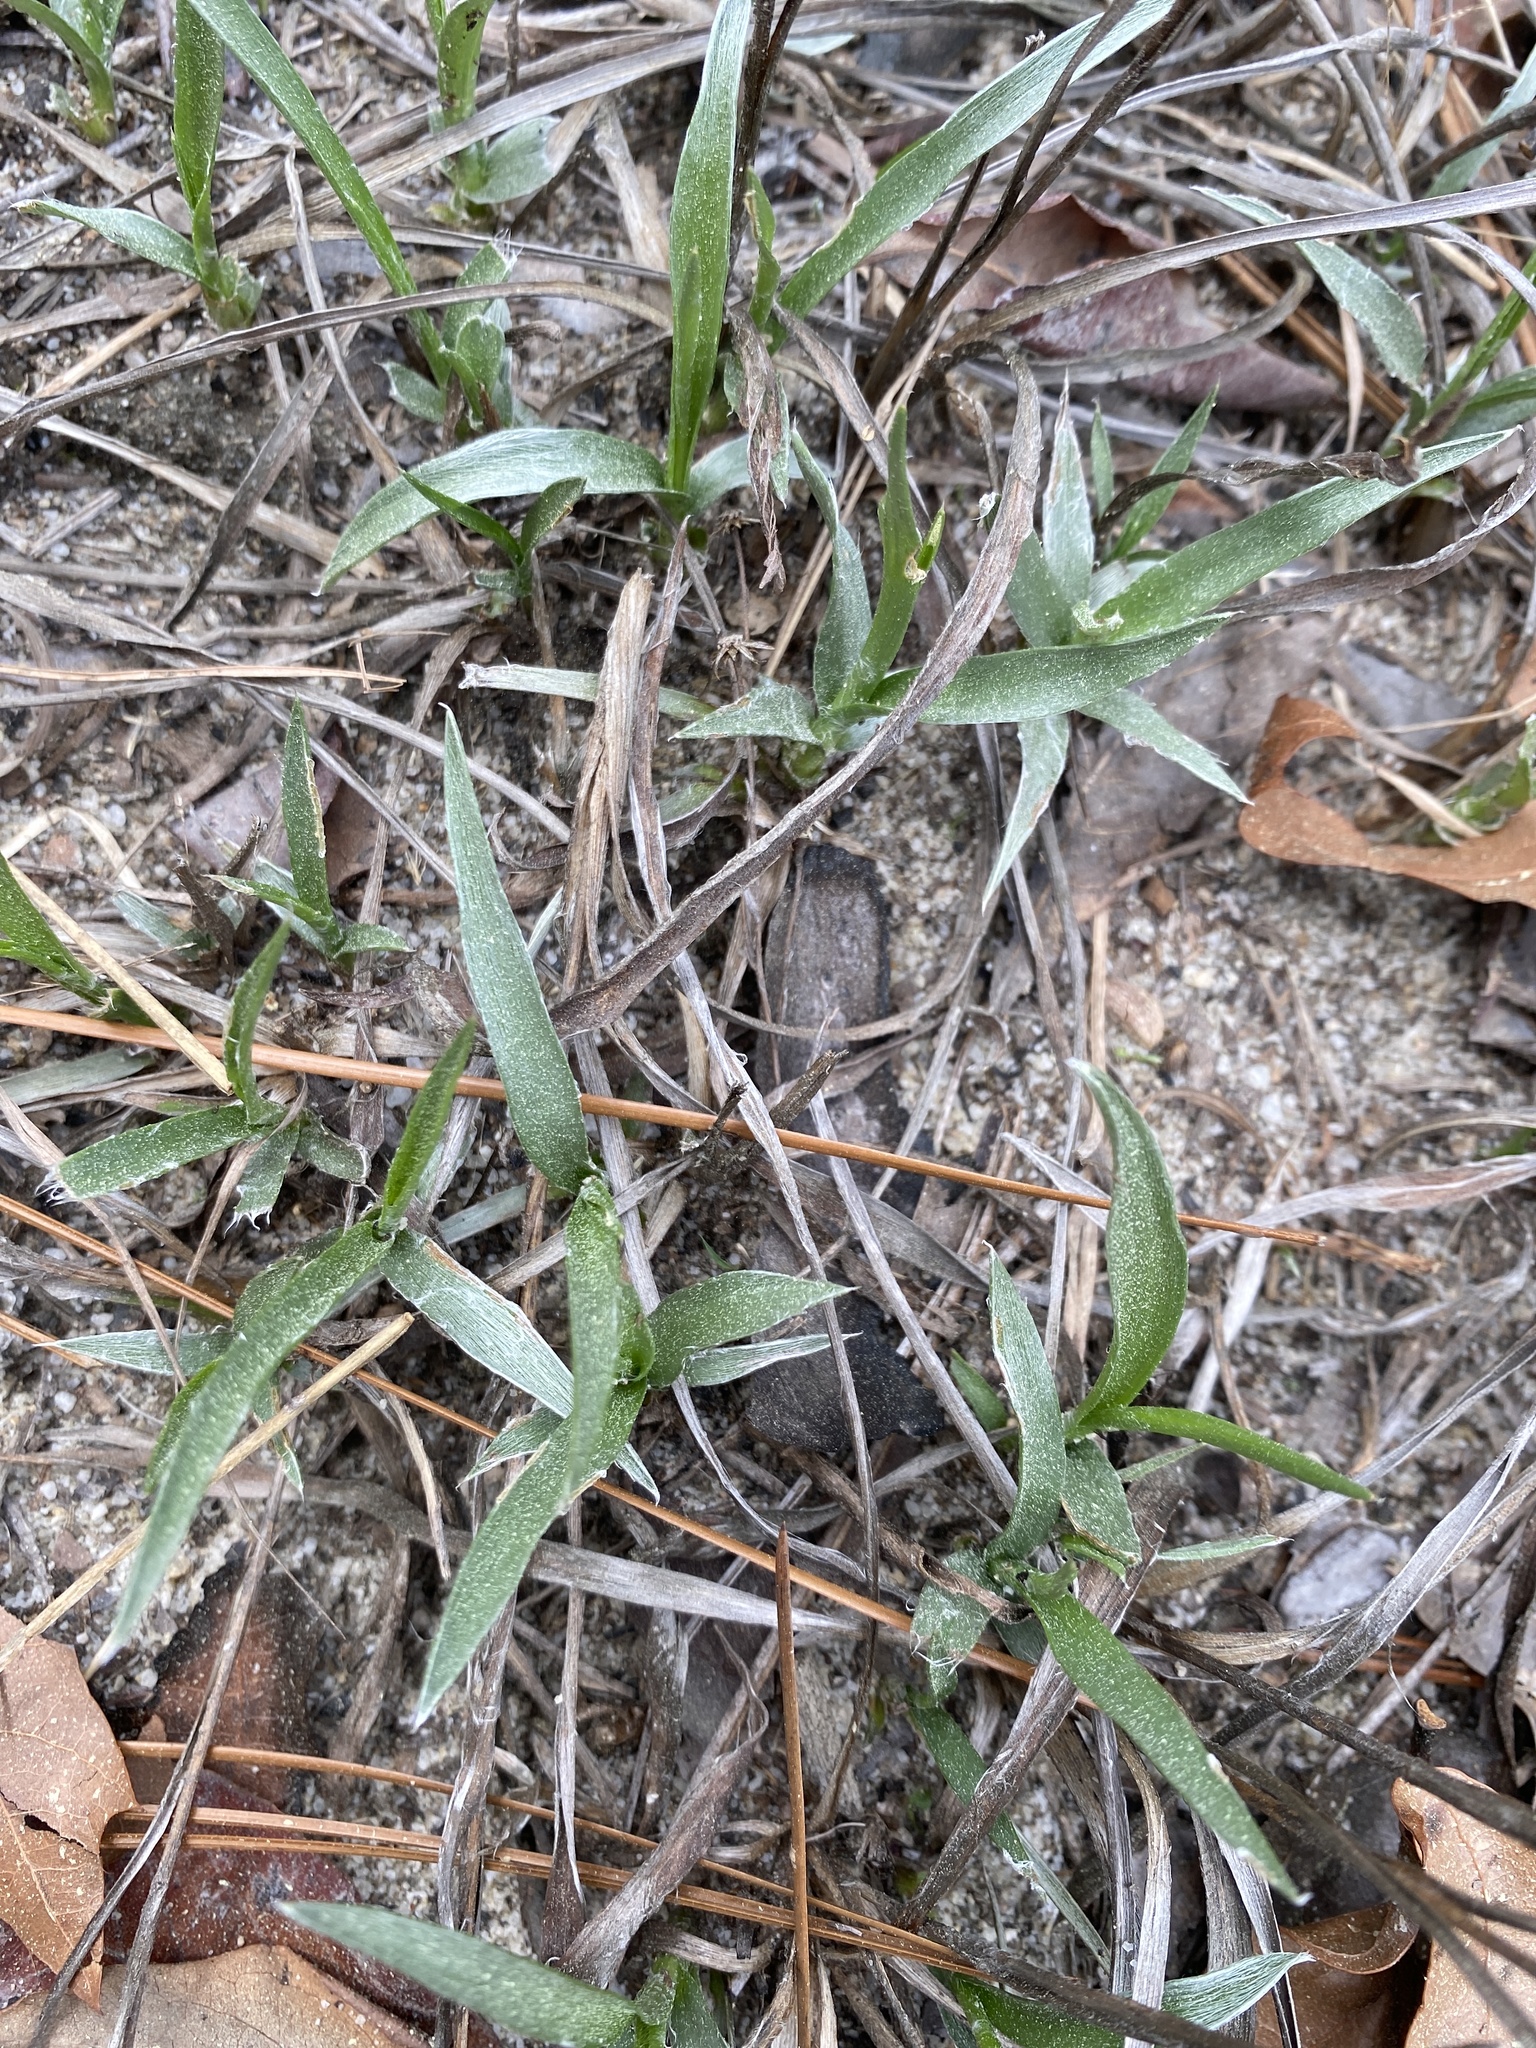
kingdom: Plantae
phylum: Tracheophyta
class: Magnoliopsida
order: Asterales
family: Asteraceae
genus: Pityopsis
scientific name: Pityopsis graminifolia
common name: Grass-leaf golden-aster
